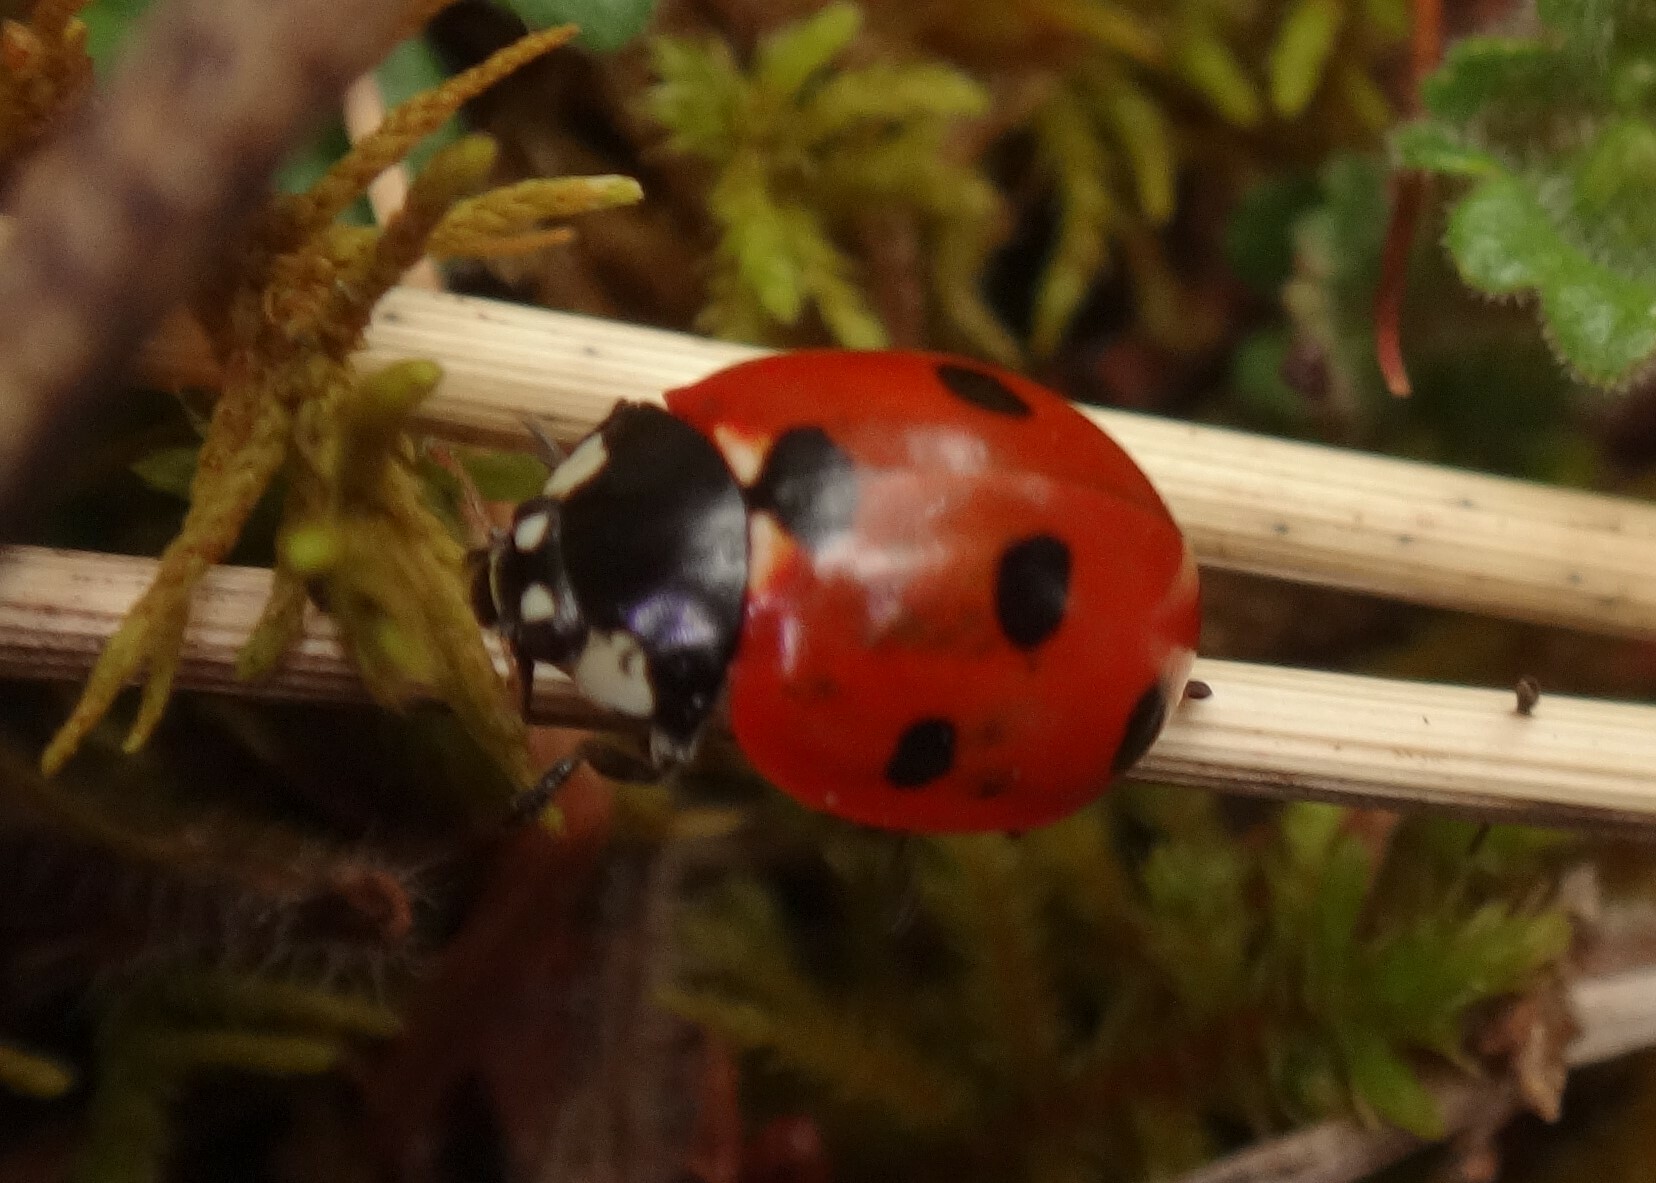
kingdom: Animalia
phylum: Arthropoda
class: Insecta
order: Coleoptera
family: Coccinellidae
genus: Coccinella
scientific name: Coccinella septempunctata
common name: Sevenspotted lady beetle
